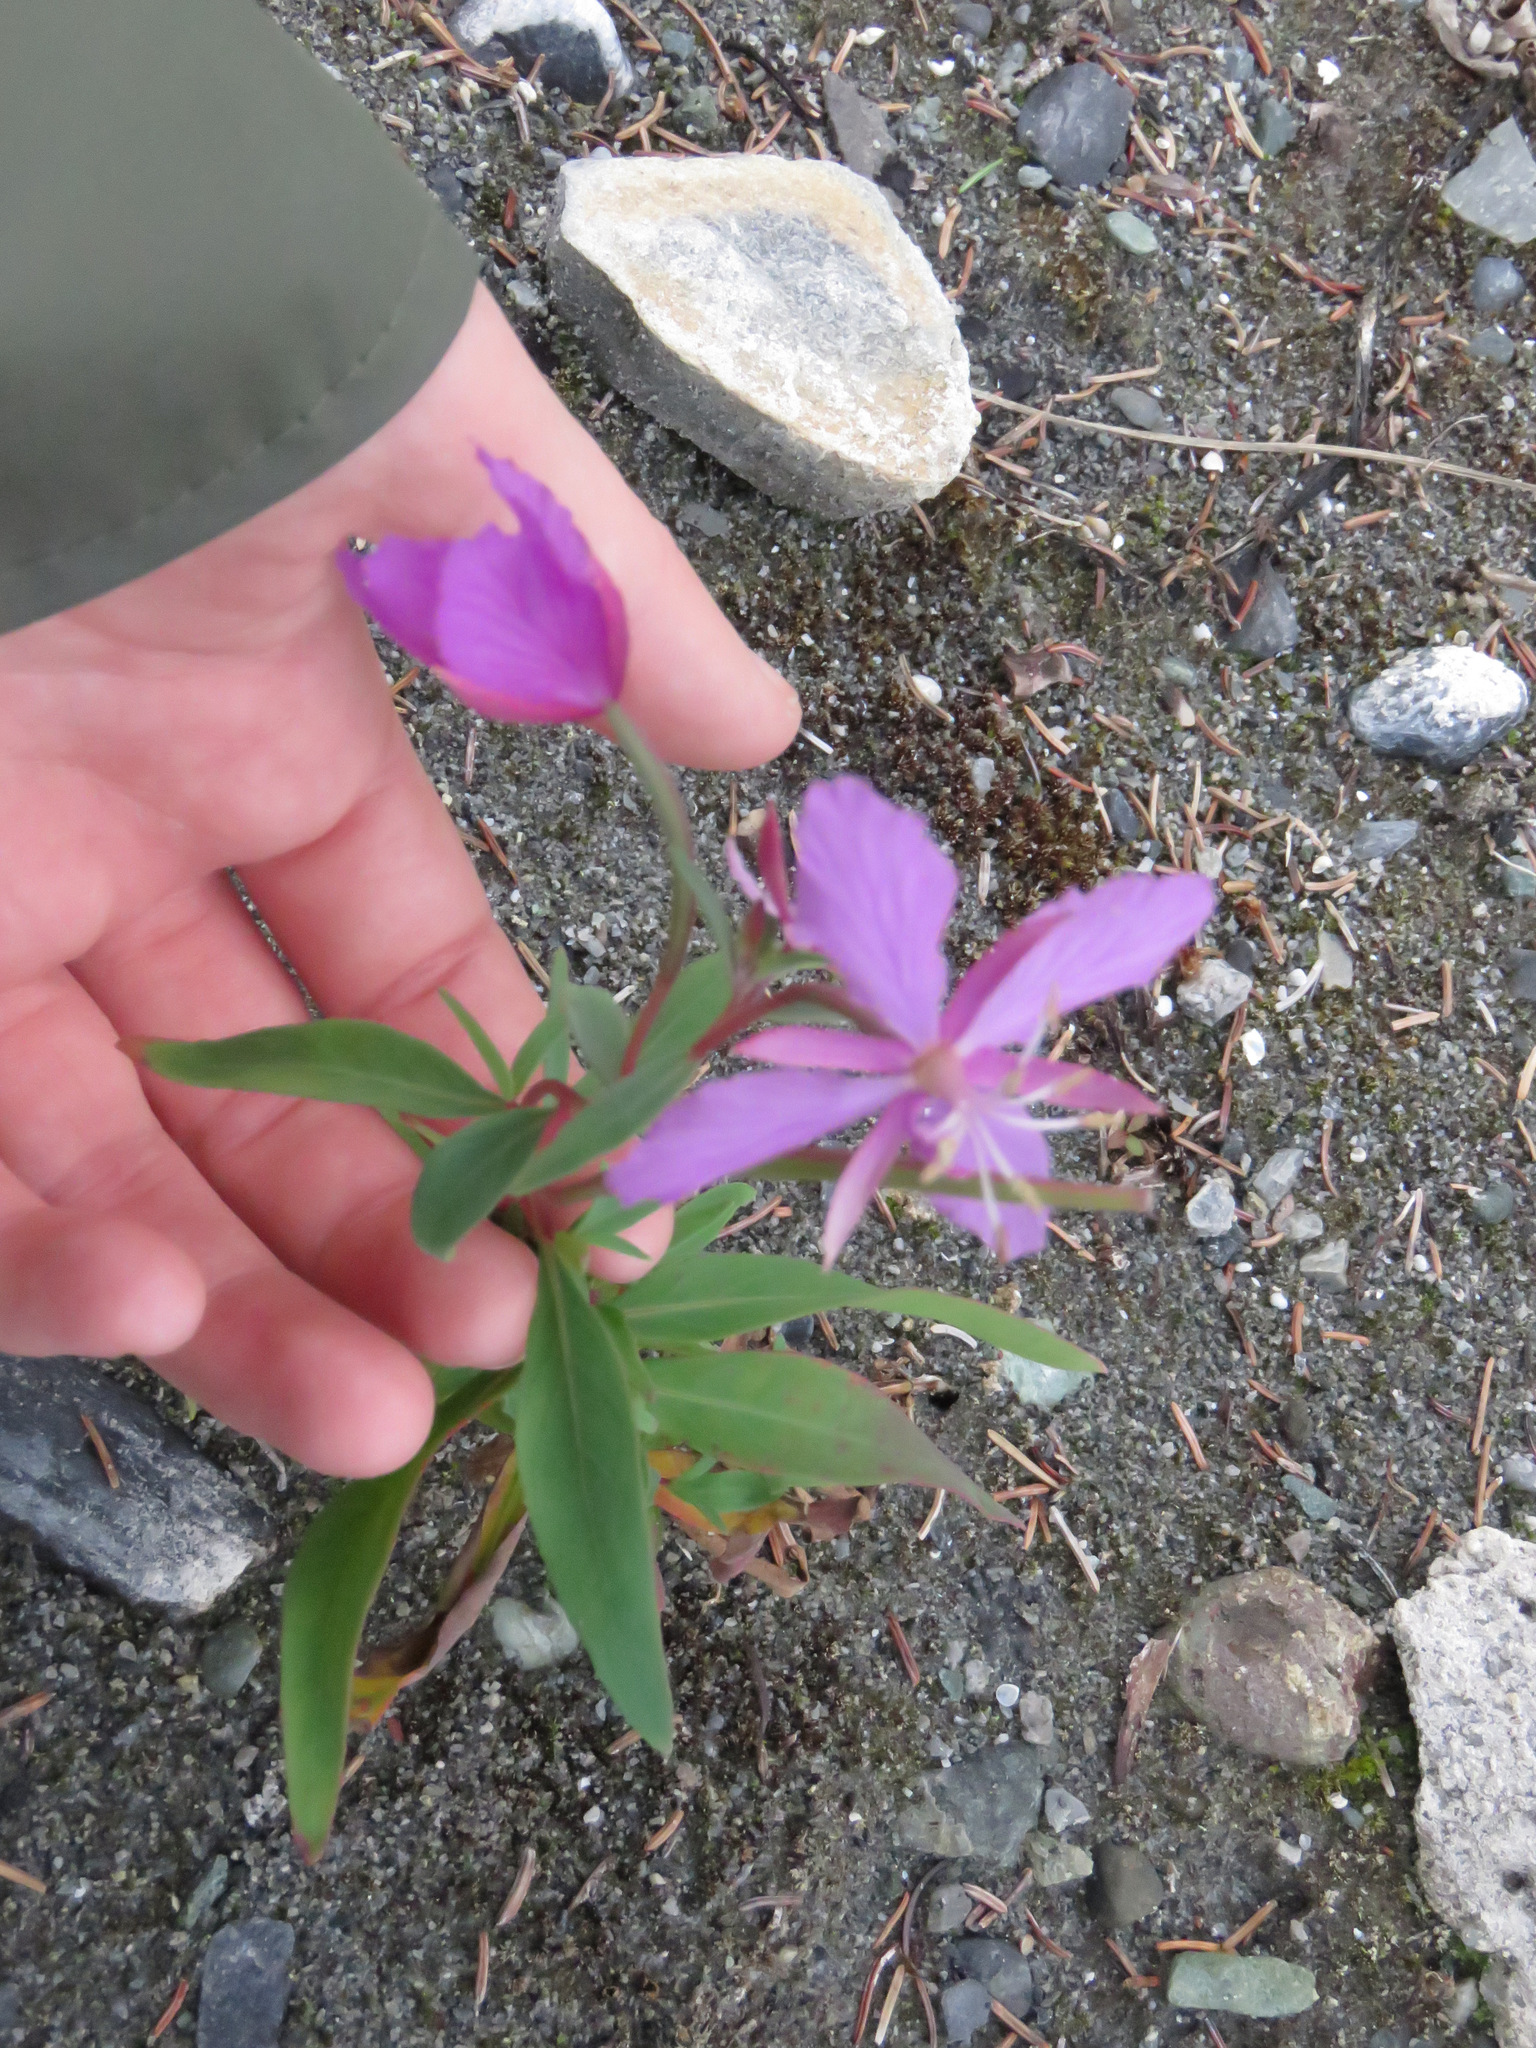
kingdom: Plantae
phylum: Tracheophyta
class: Magnoliopsida
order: Myrtales
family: Onagraceae
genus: Chamaenerion
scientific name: Chamaenerion latifolium
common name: Dwarf fireweed
